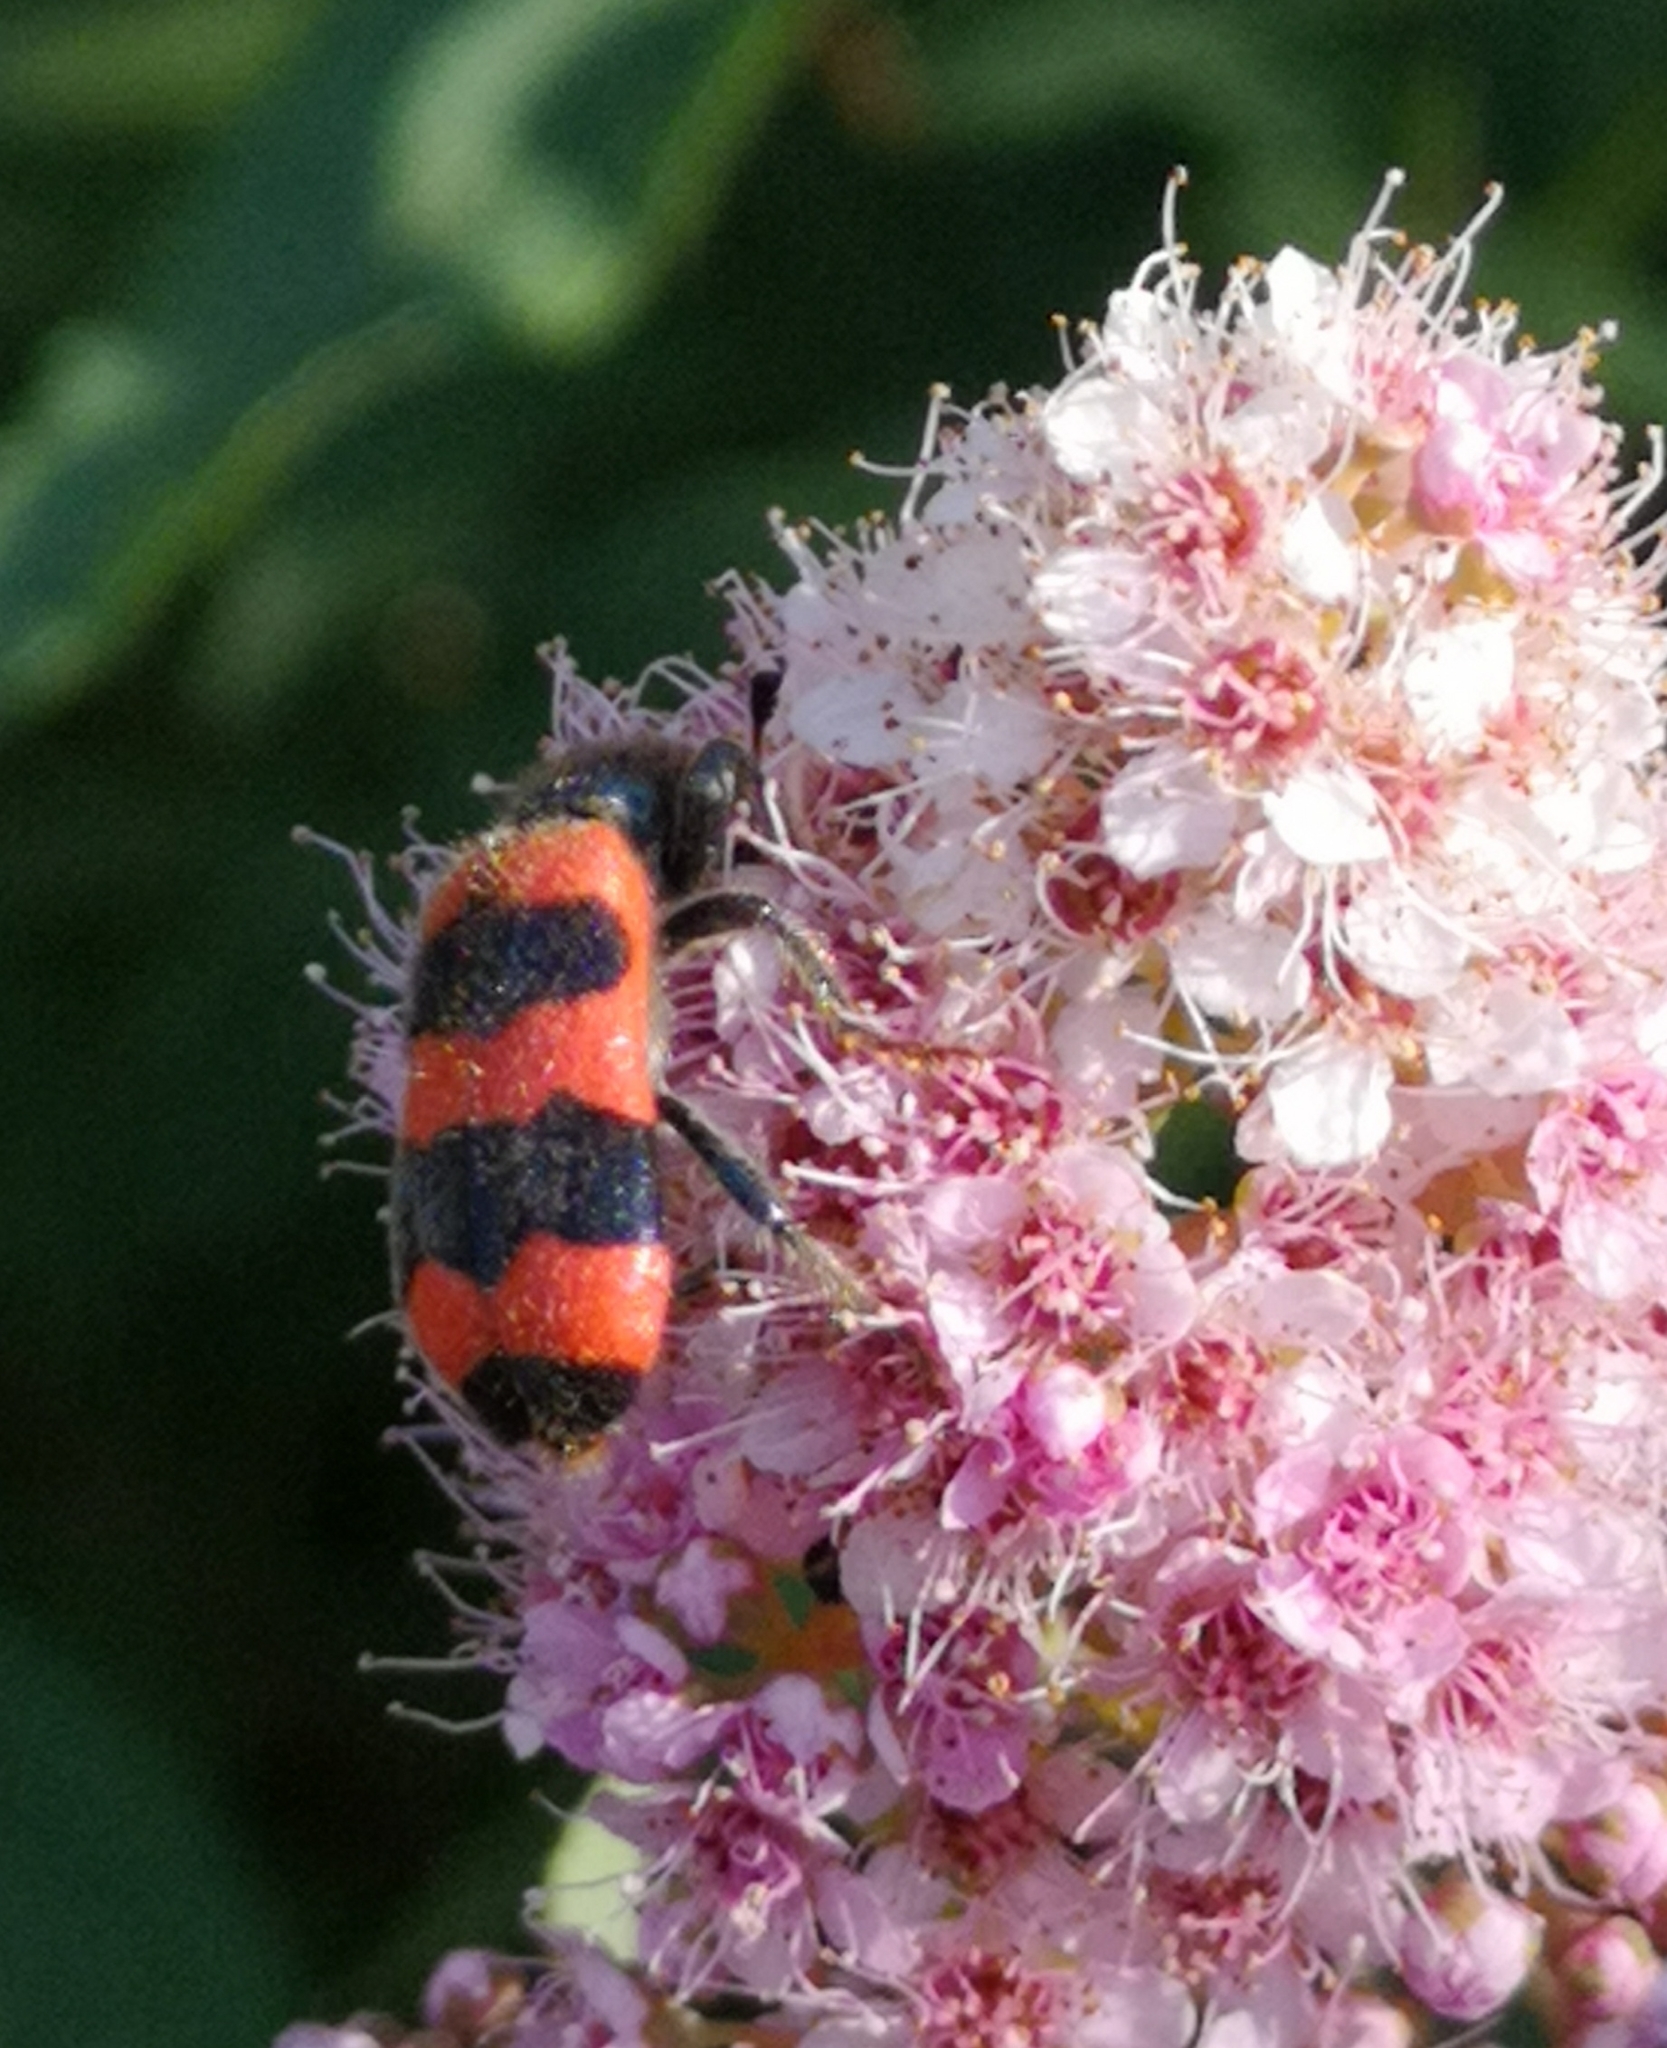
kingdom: Animalia
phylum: Arthropoda
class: Insecta
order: Coleoptera
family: Cleridae
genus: Trichodes
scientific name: Trichodes apiarius
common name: Bee-eating beetle
